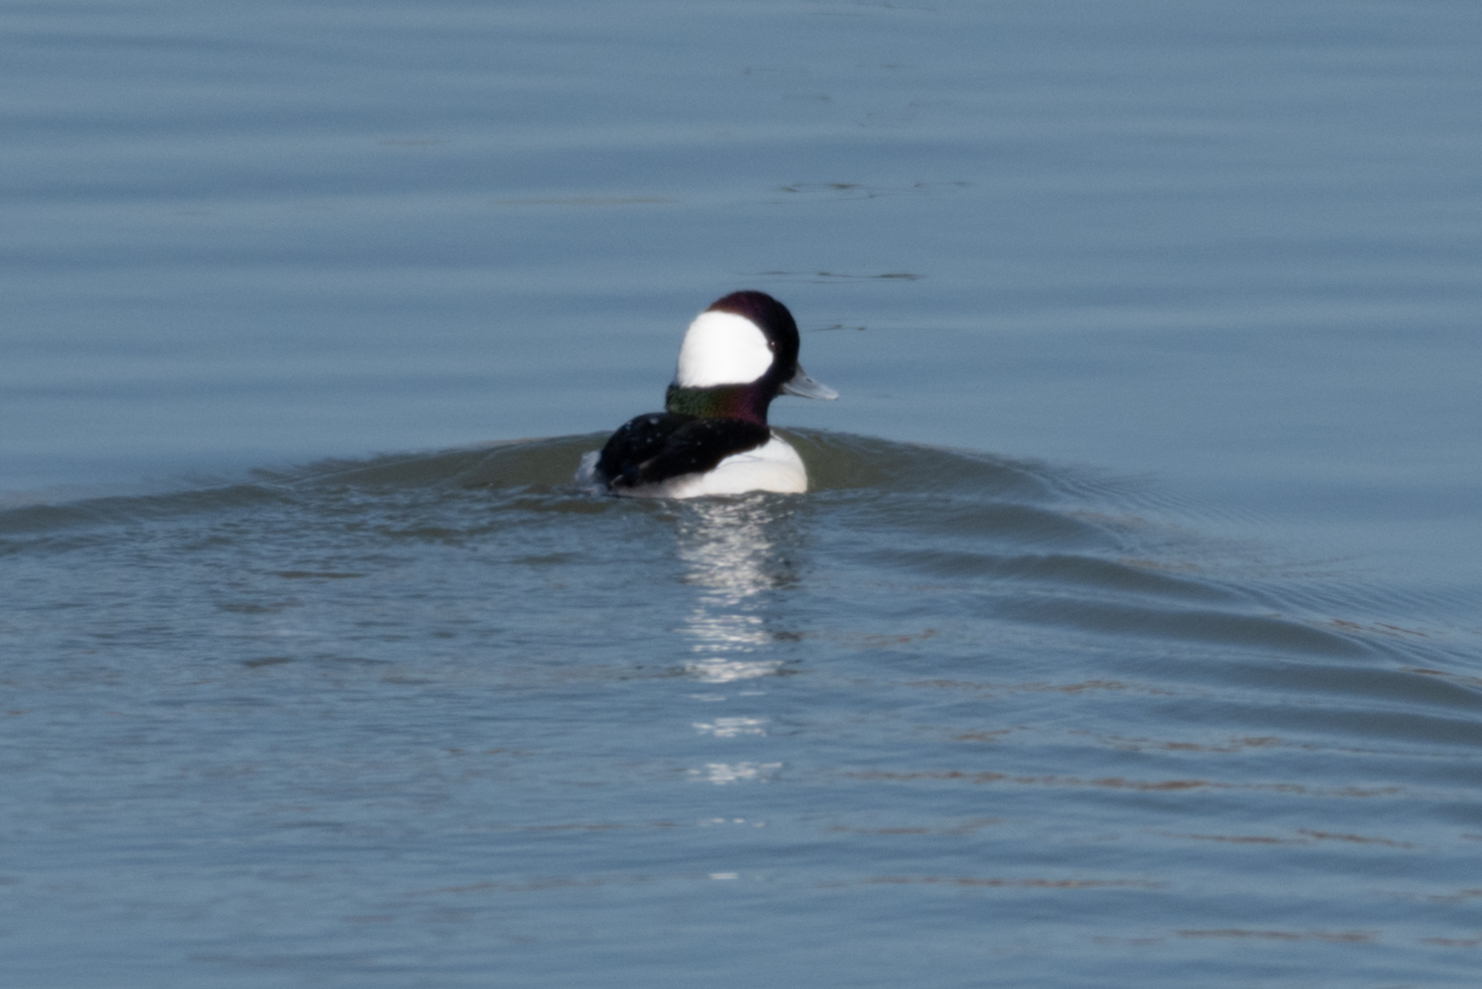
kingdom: Animalia
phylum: Chordata
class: Aves
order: Anseriformes
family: Anatidae
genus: Bucephala
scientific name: Bucephala albeola
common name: Bufflehead
